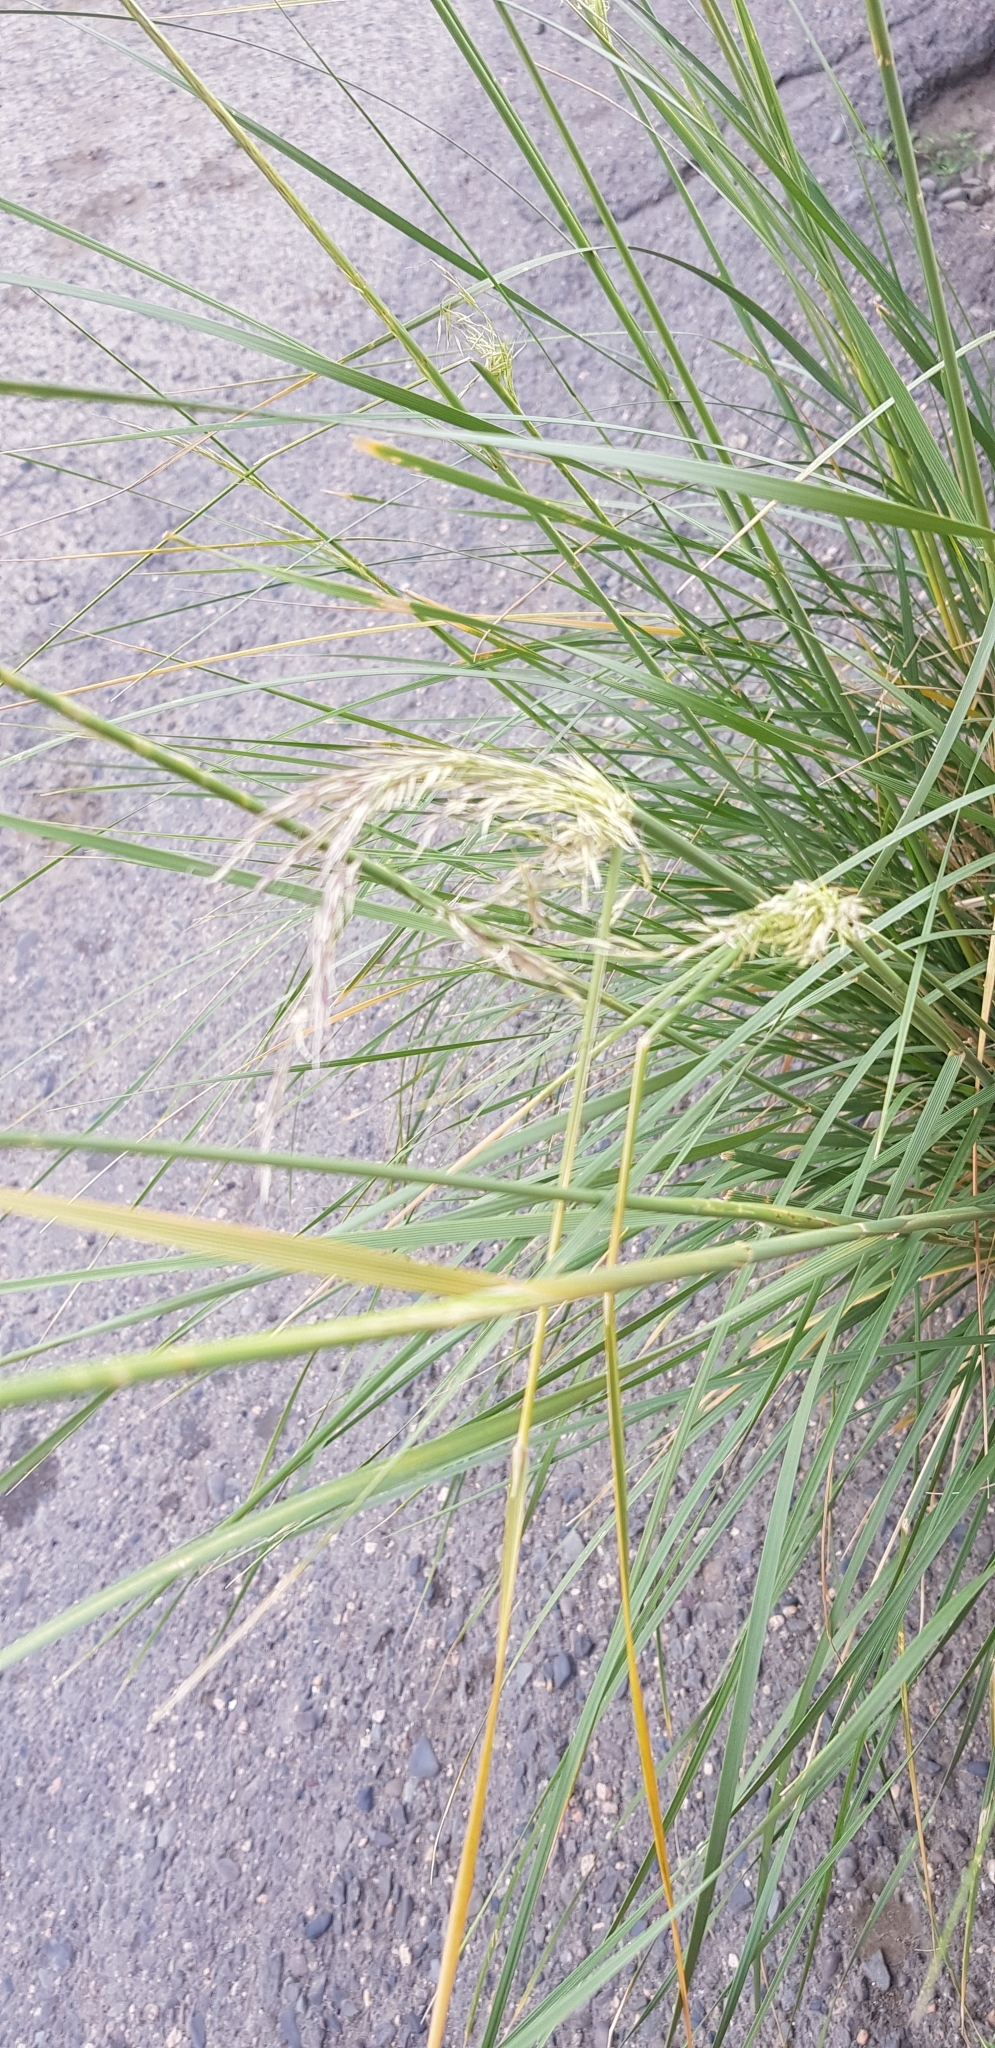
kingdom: Plantae
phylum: Tracheophyta
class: Liliopsida
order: Poales
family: Poaceae
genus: Neotrinia
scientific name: Neotrinia splendens
